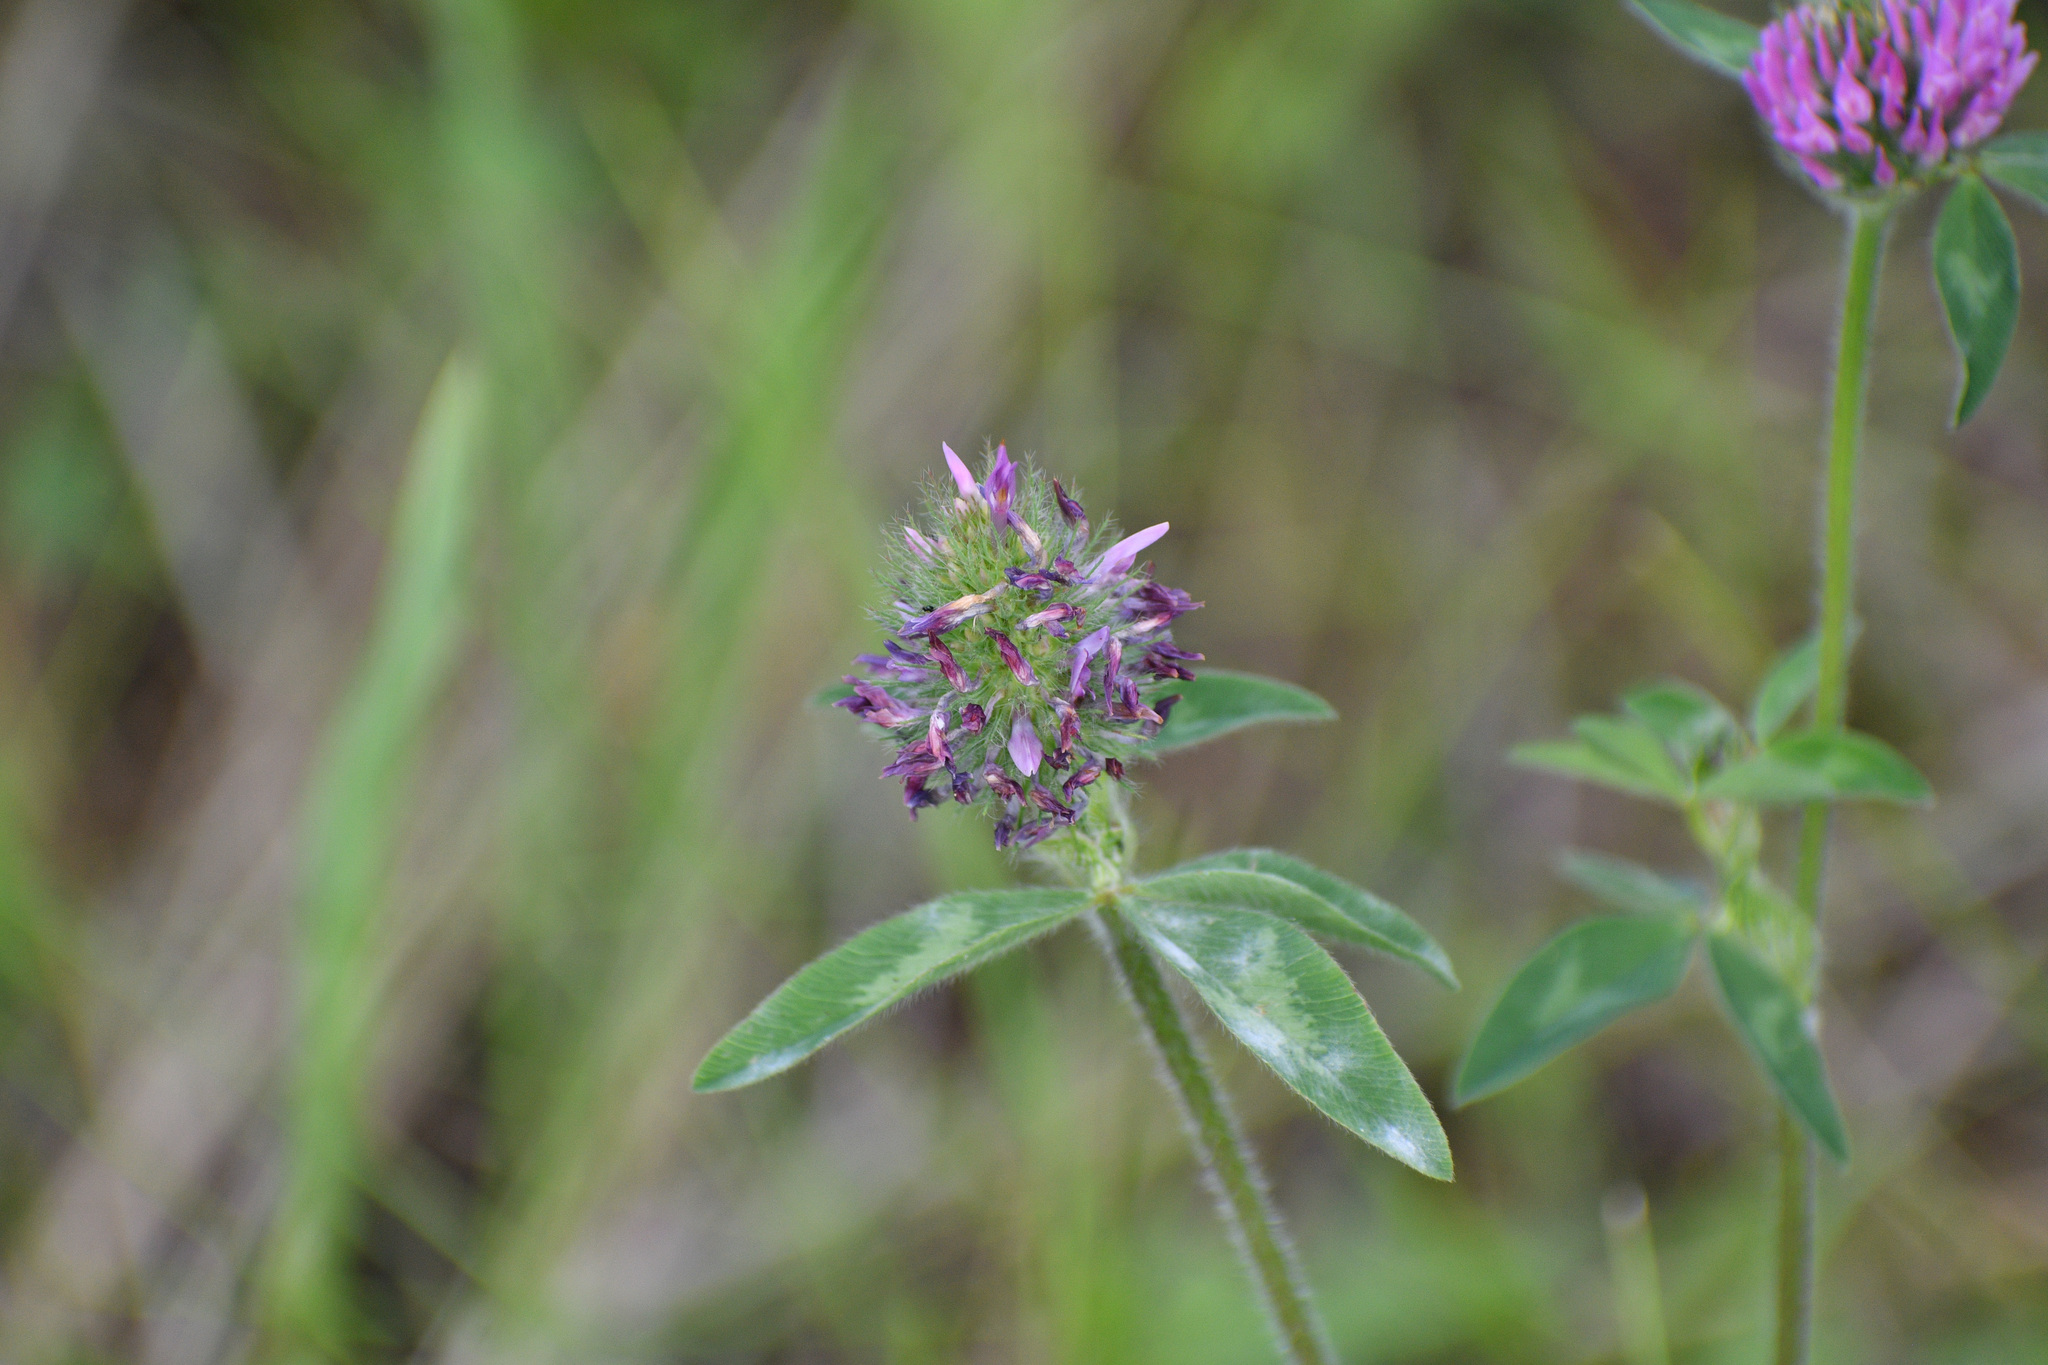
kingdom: Plantae
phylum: Tracheophyta
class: Magnoliopsida
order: Fabales
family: Fabaceae
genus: Trifolium
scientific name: Trifolium pratense
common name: Red clover
